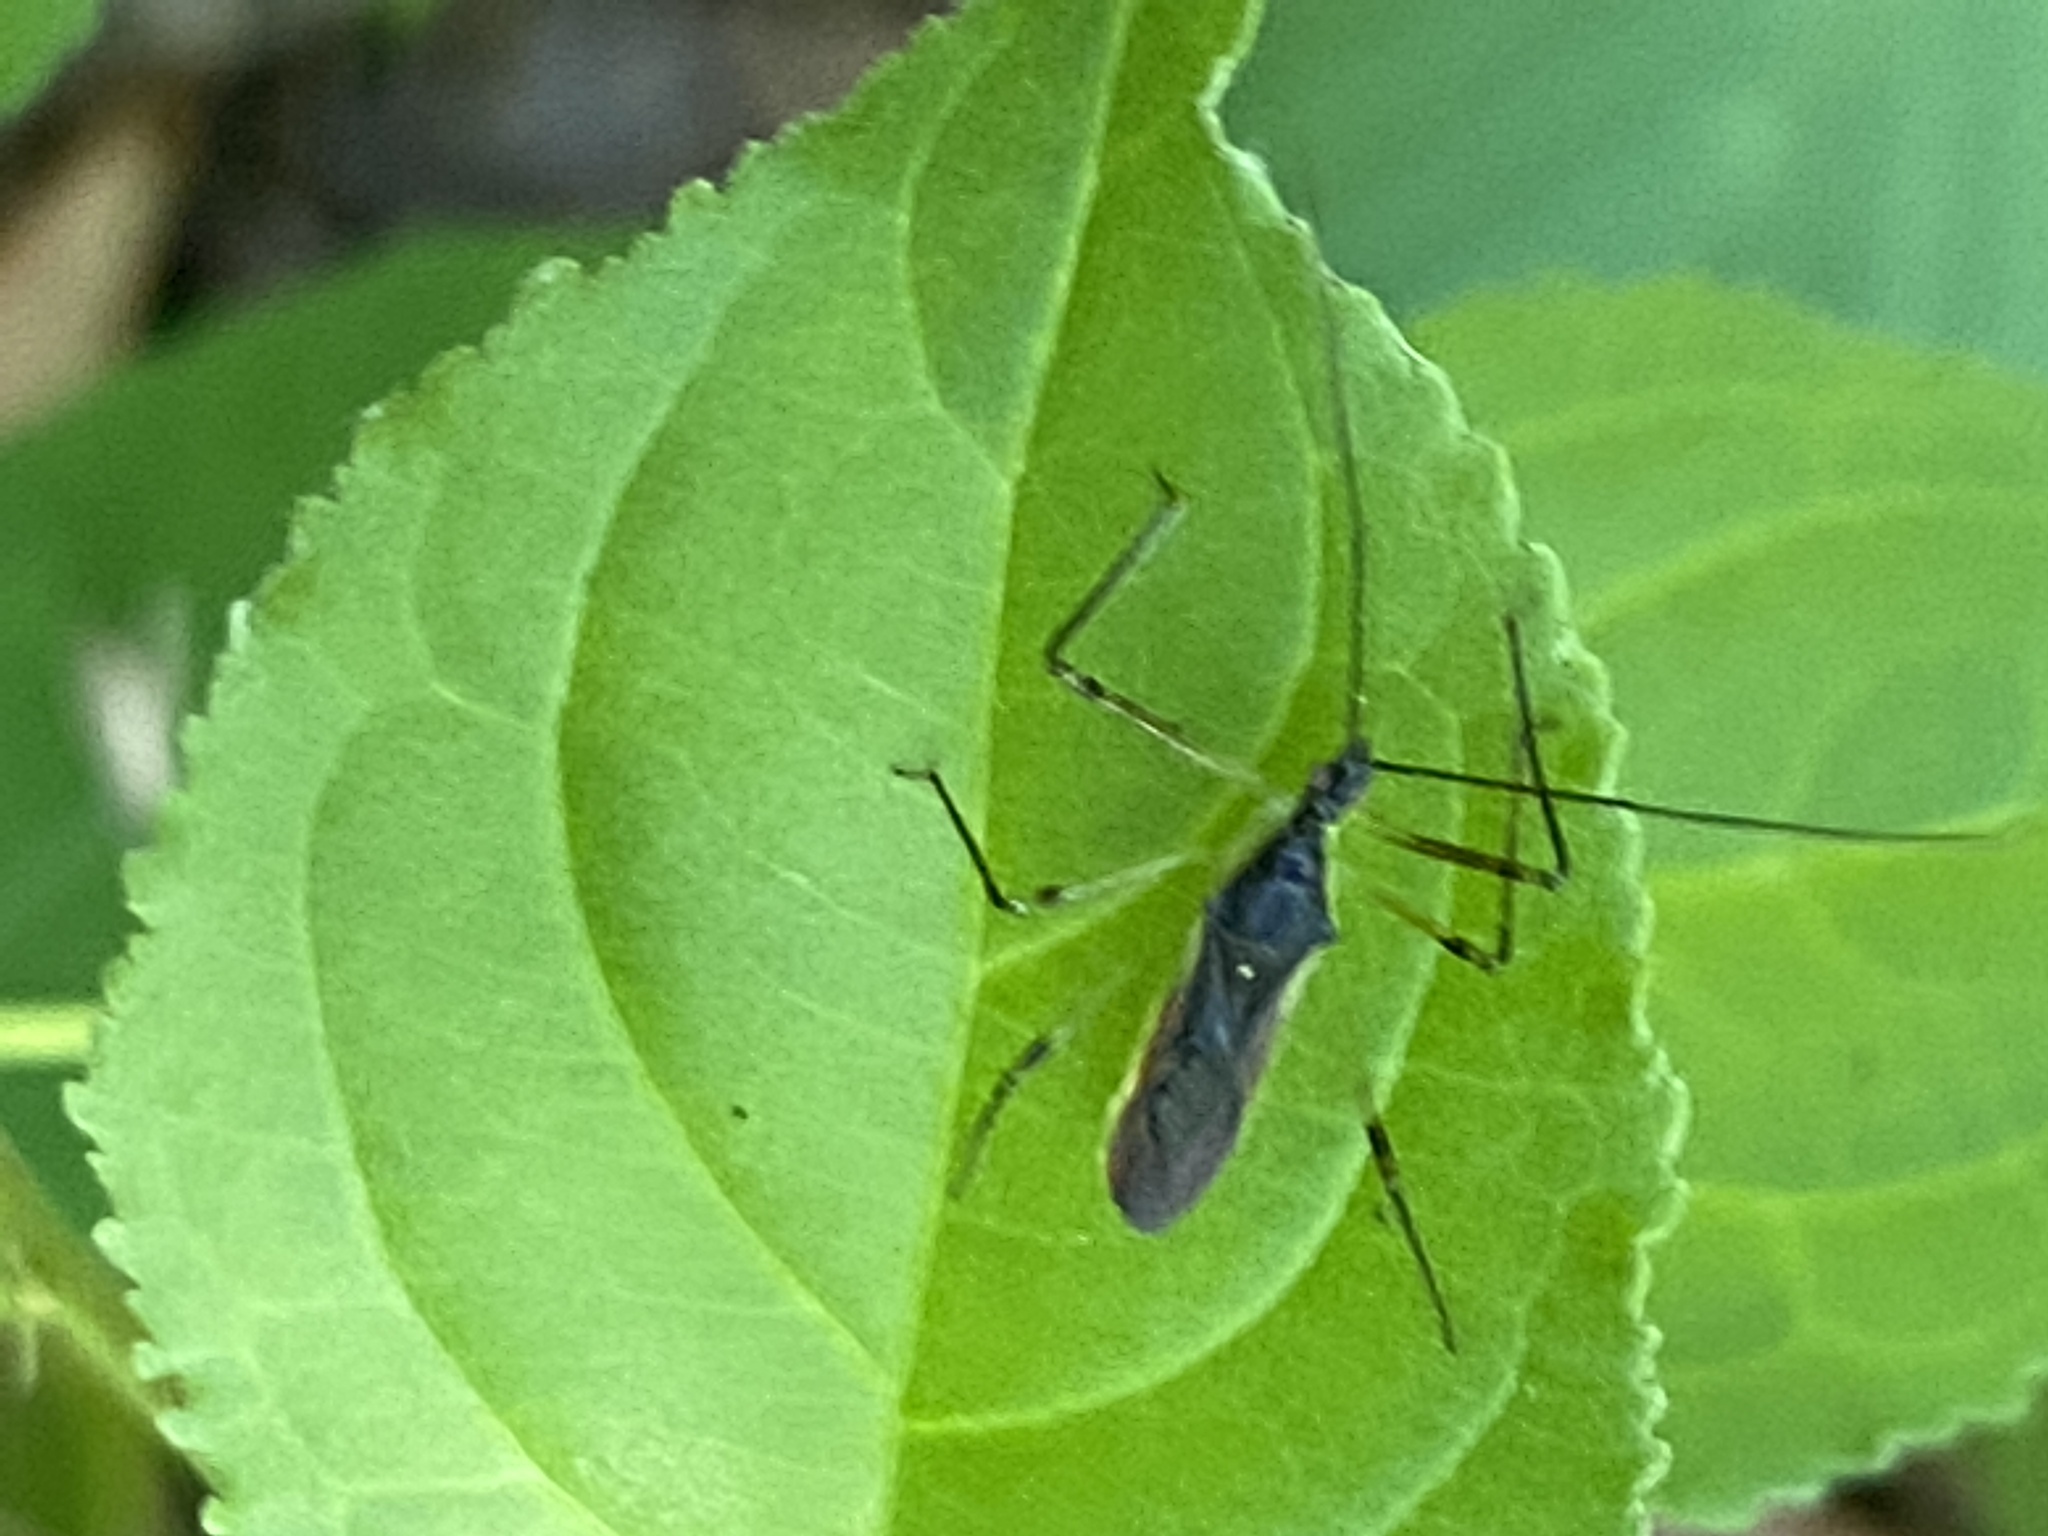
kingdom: Animalia
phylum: Arthropoda
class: Insecta
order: Hemiptera
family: Reduviidae
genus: Zelus
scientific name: Zelus luridus
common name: Pale green assassin bug
